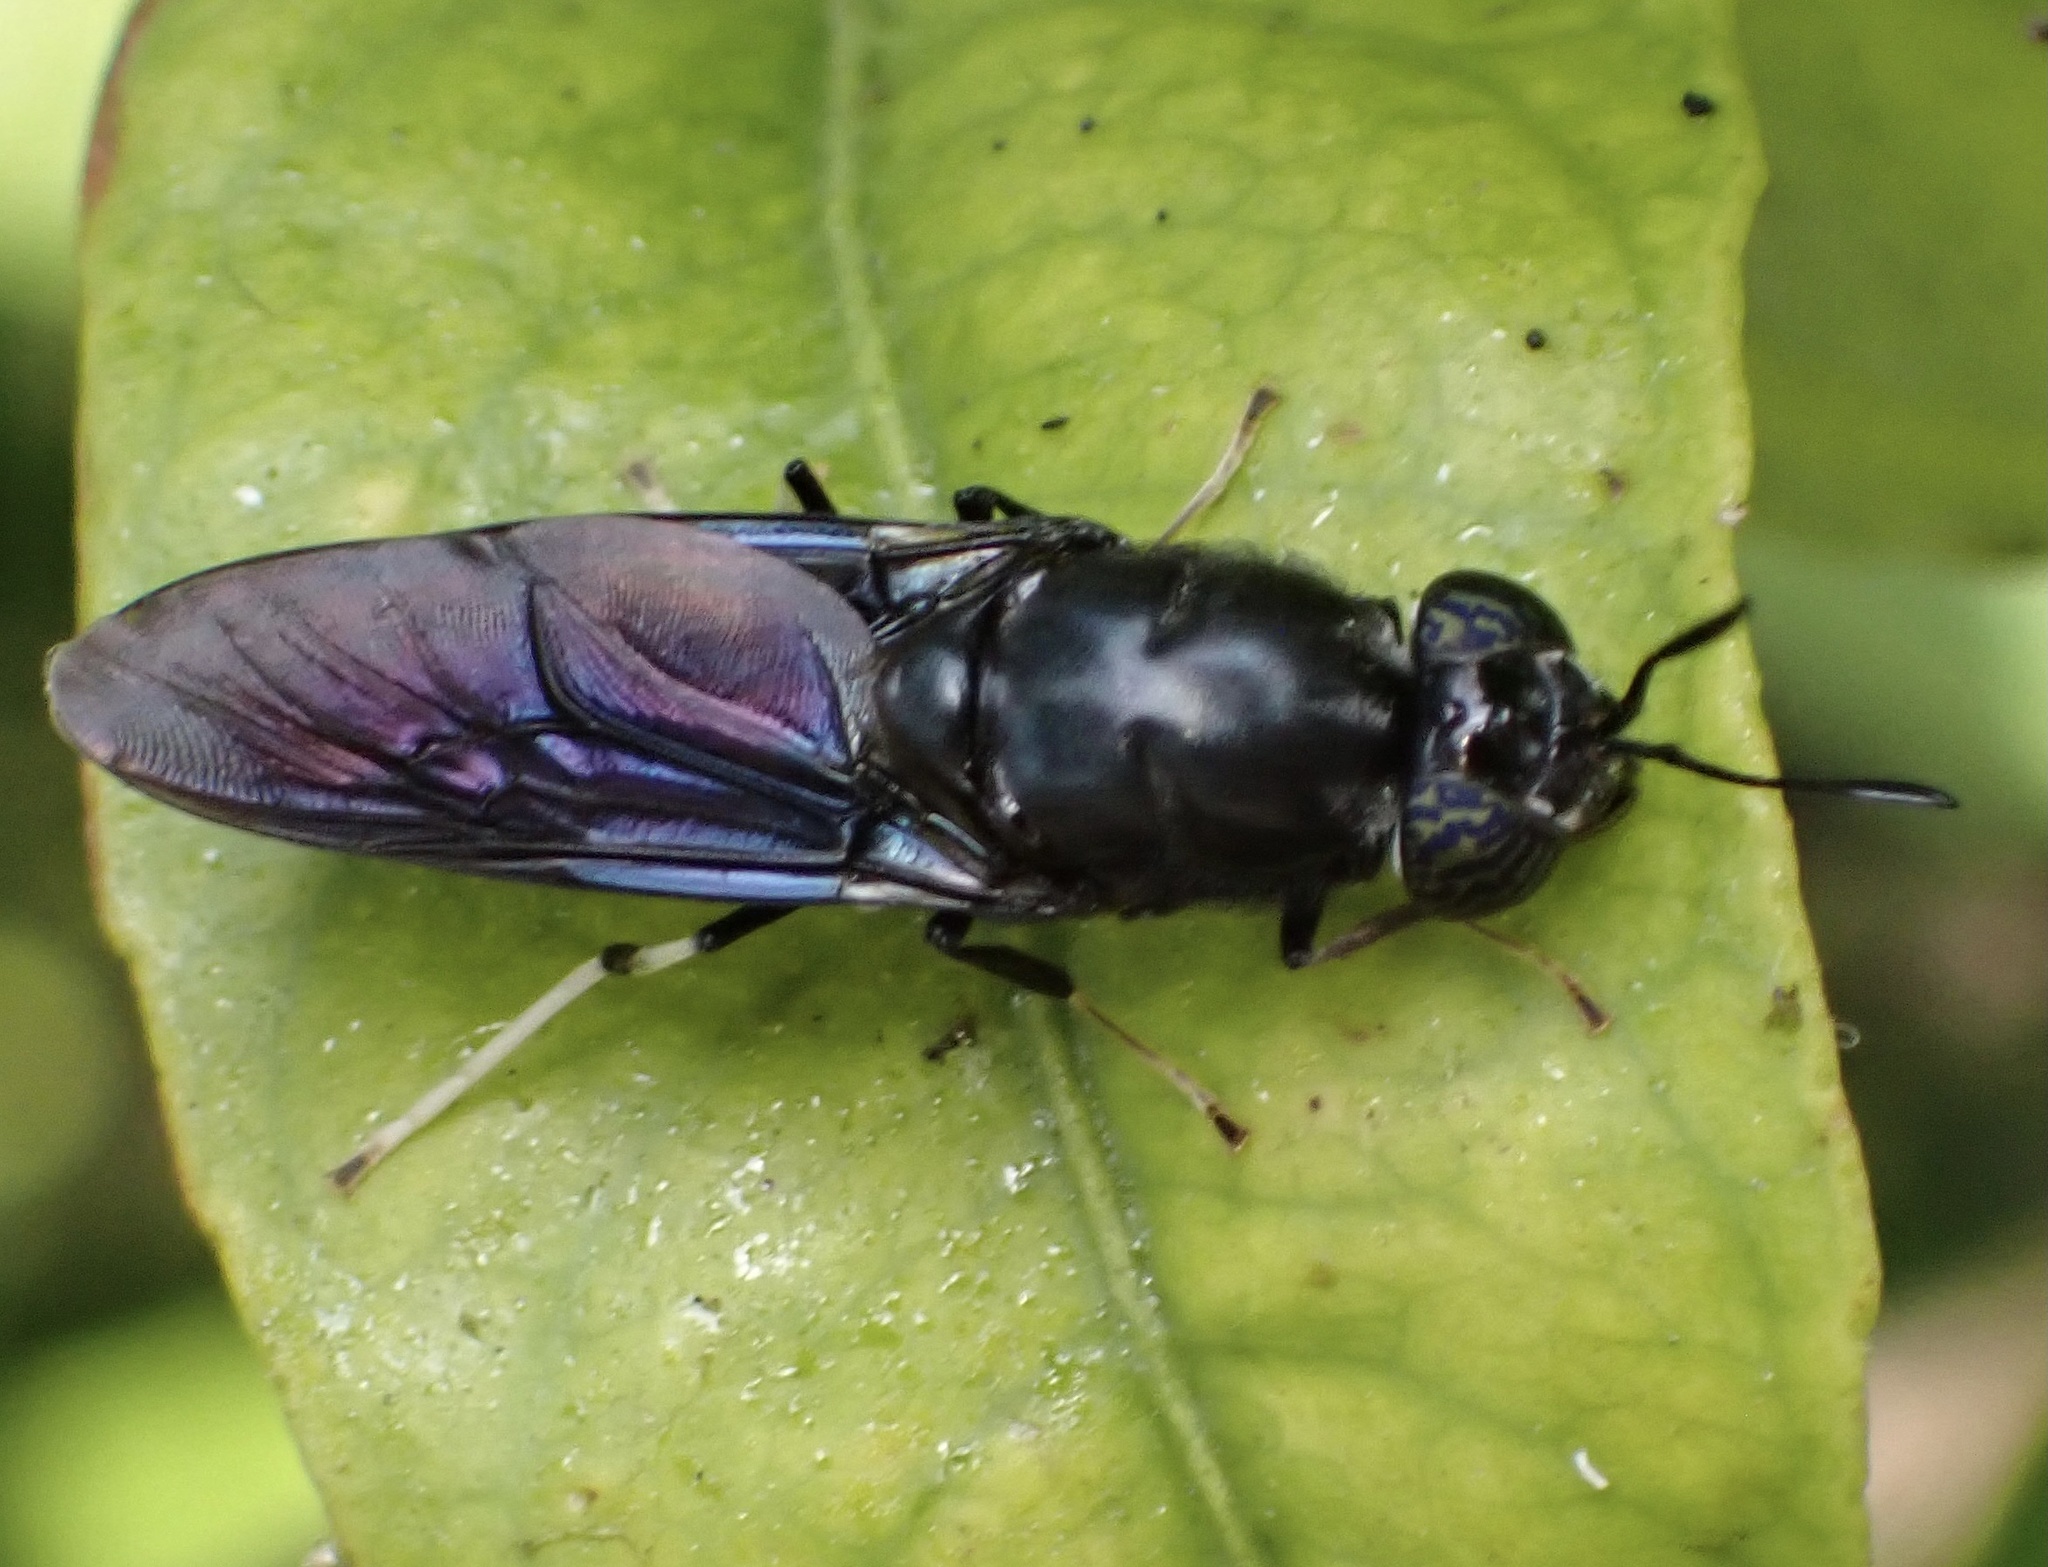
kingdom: Animalia
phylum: Arthropoda
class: Insecta
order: Diptera
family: Stratiomyidae
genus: Hermetia
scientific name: Hermetia illucens
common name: Black soldier fly
